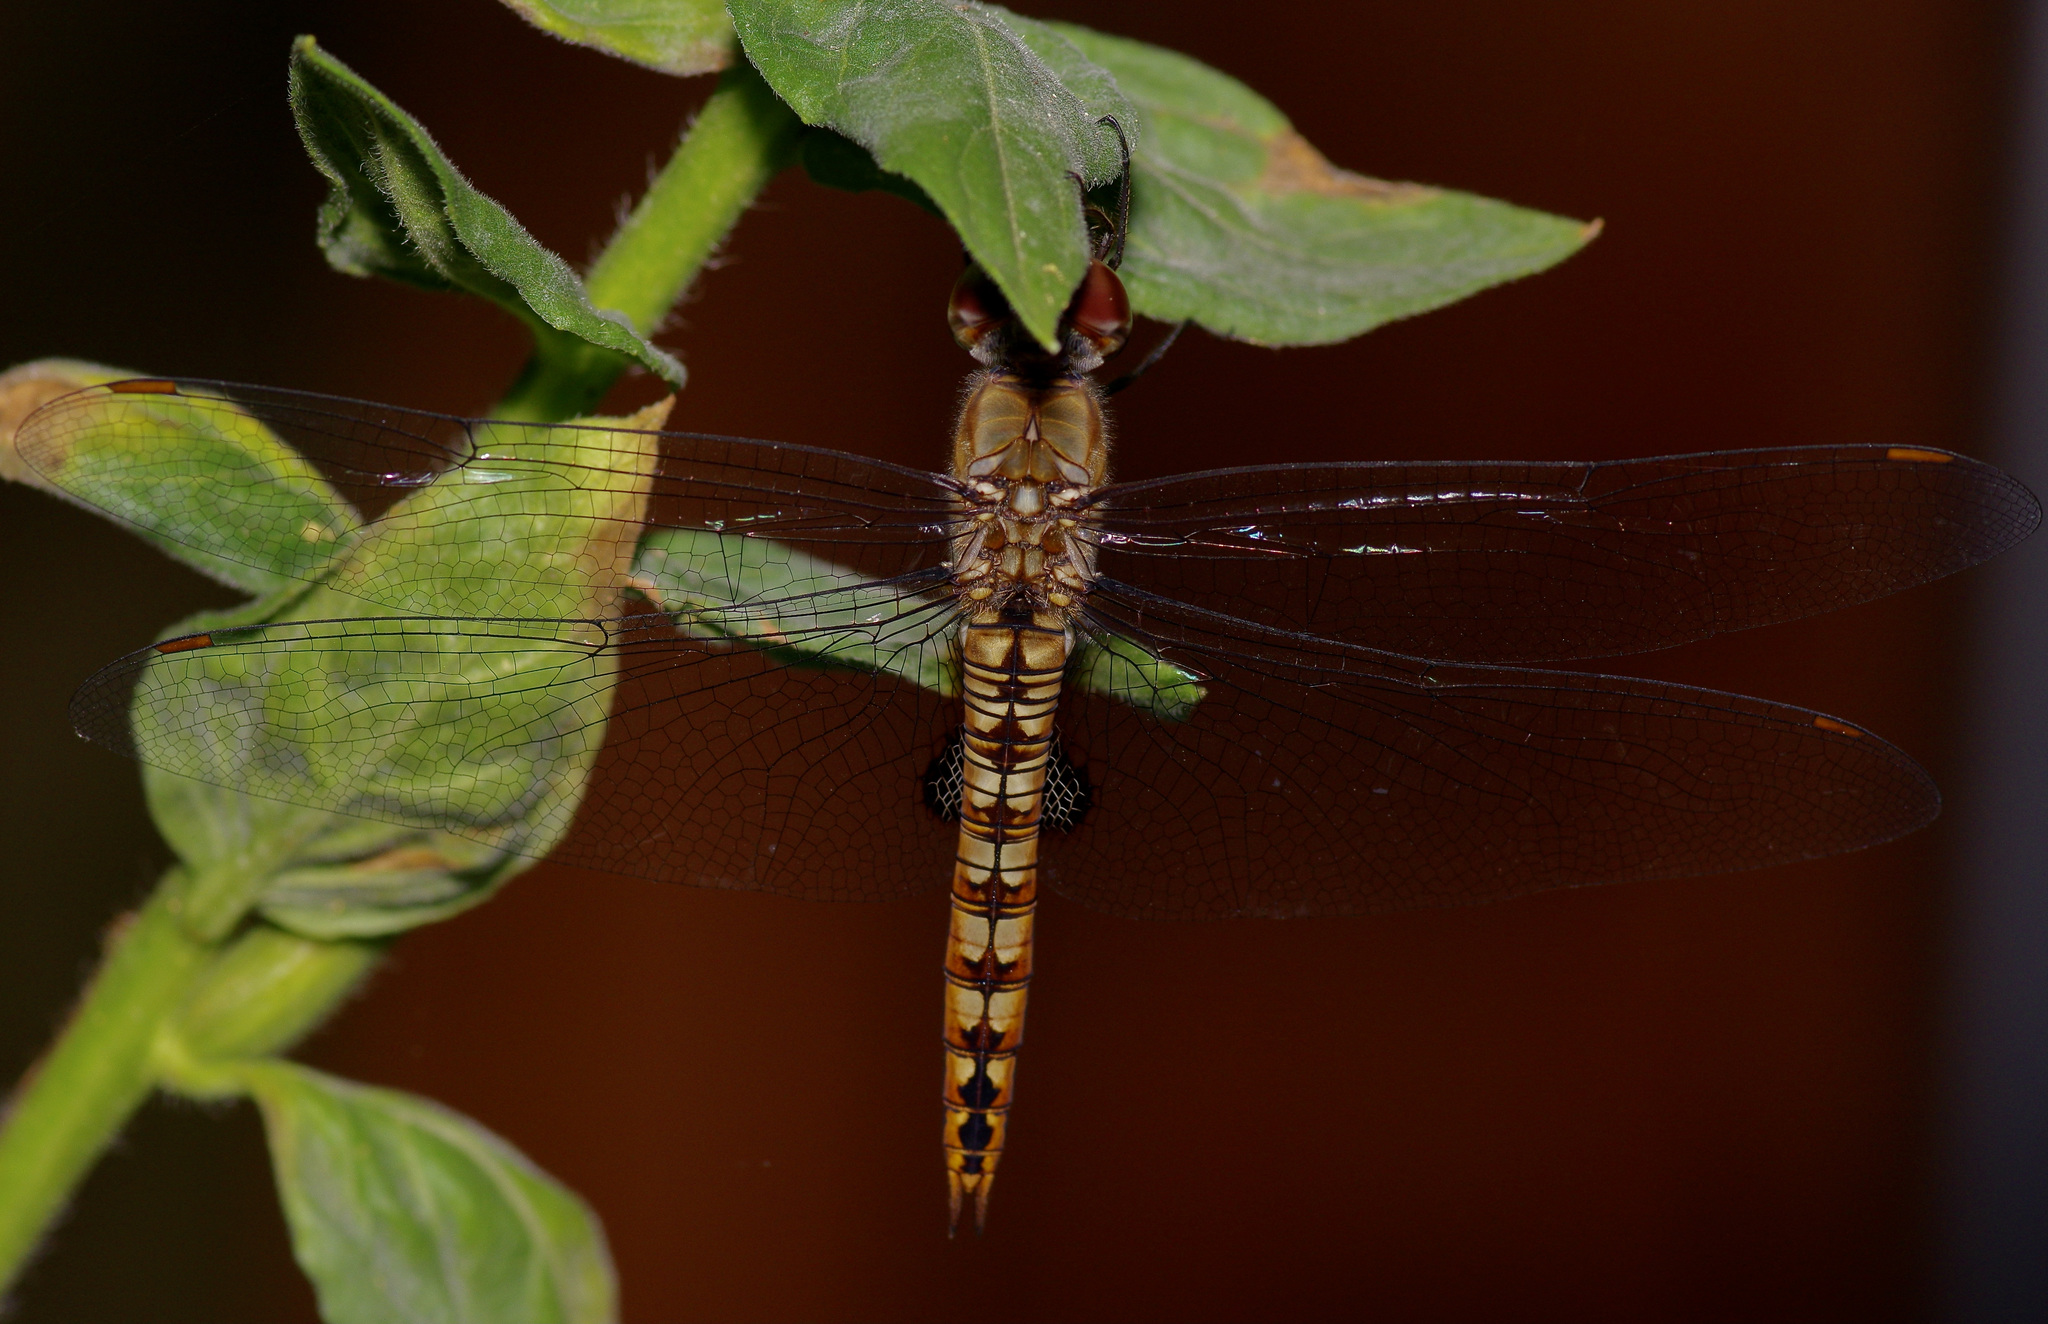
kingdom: Animalia
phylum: Arthropoda
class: Insecta
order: Odonata
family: Libellulidae
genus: Pantala
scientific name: Pantala hymenaea
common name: Spot-winged glider
